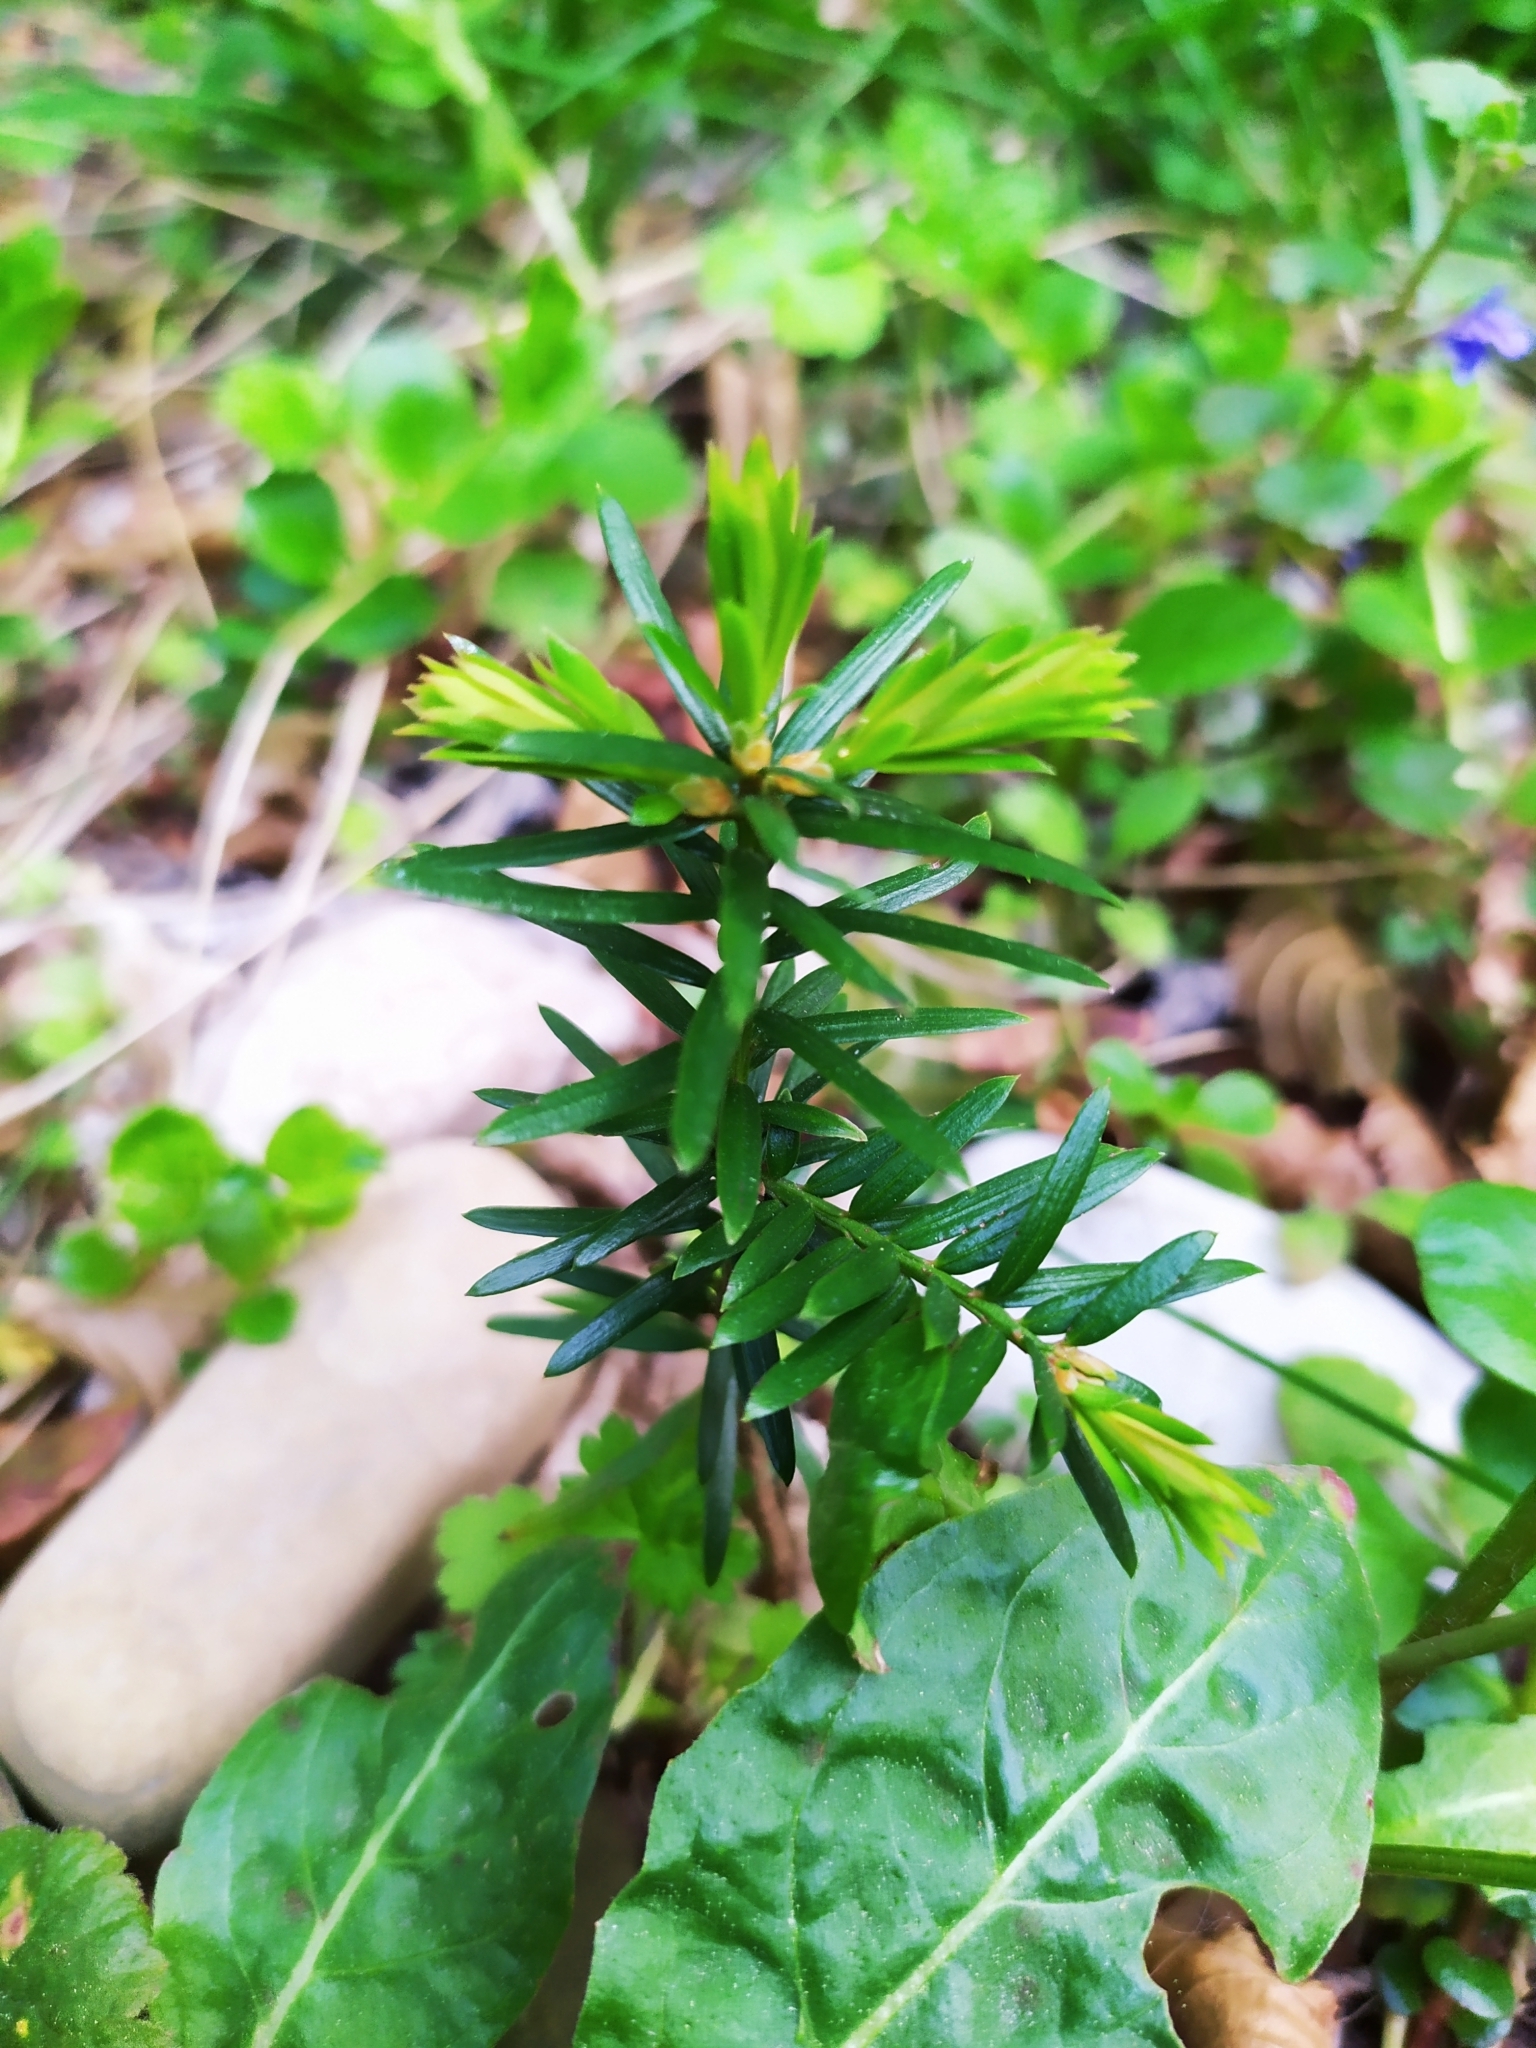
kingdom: Plantae
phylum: Tracheophyta
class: Pinopsida
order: Pinales
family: Taxaceae
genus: Taxus
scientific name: Taxus baccata
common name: Yew
